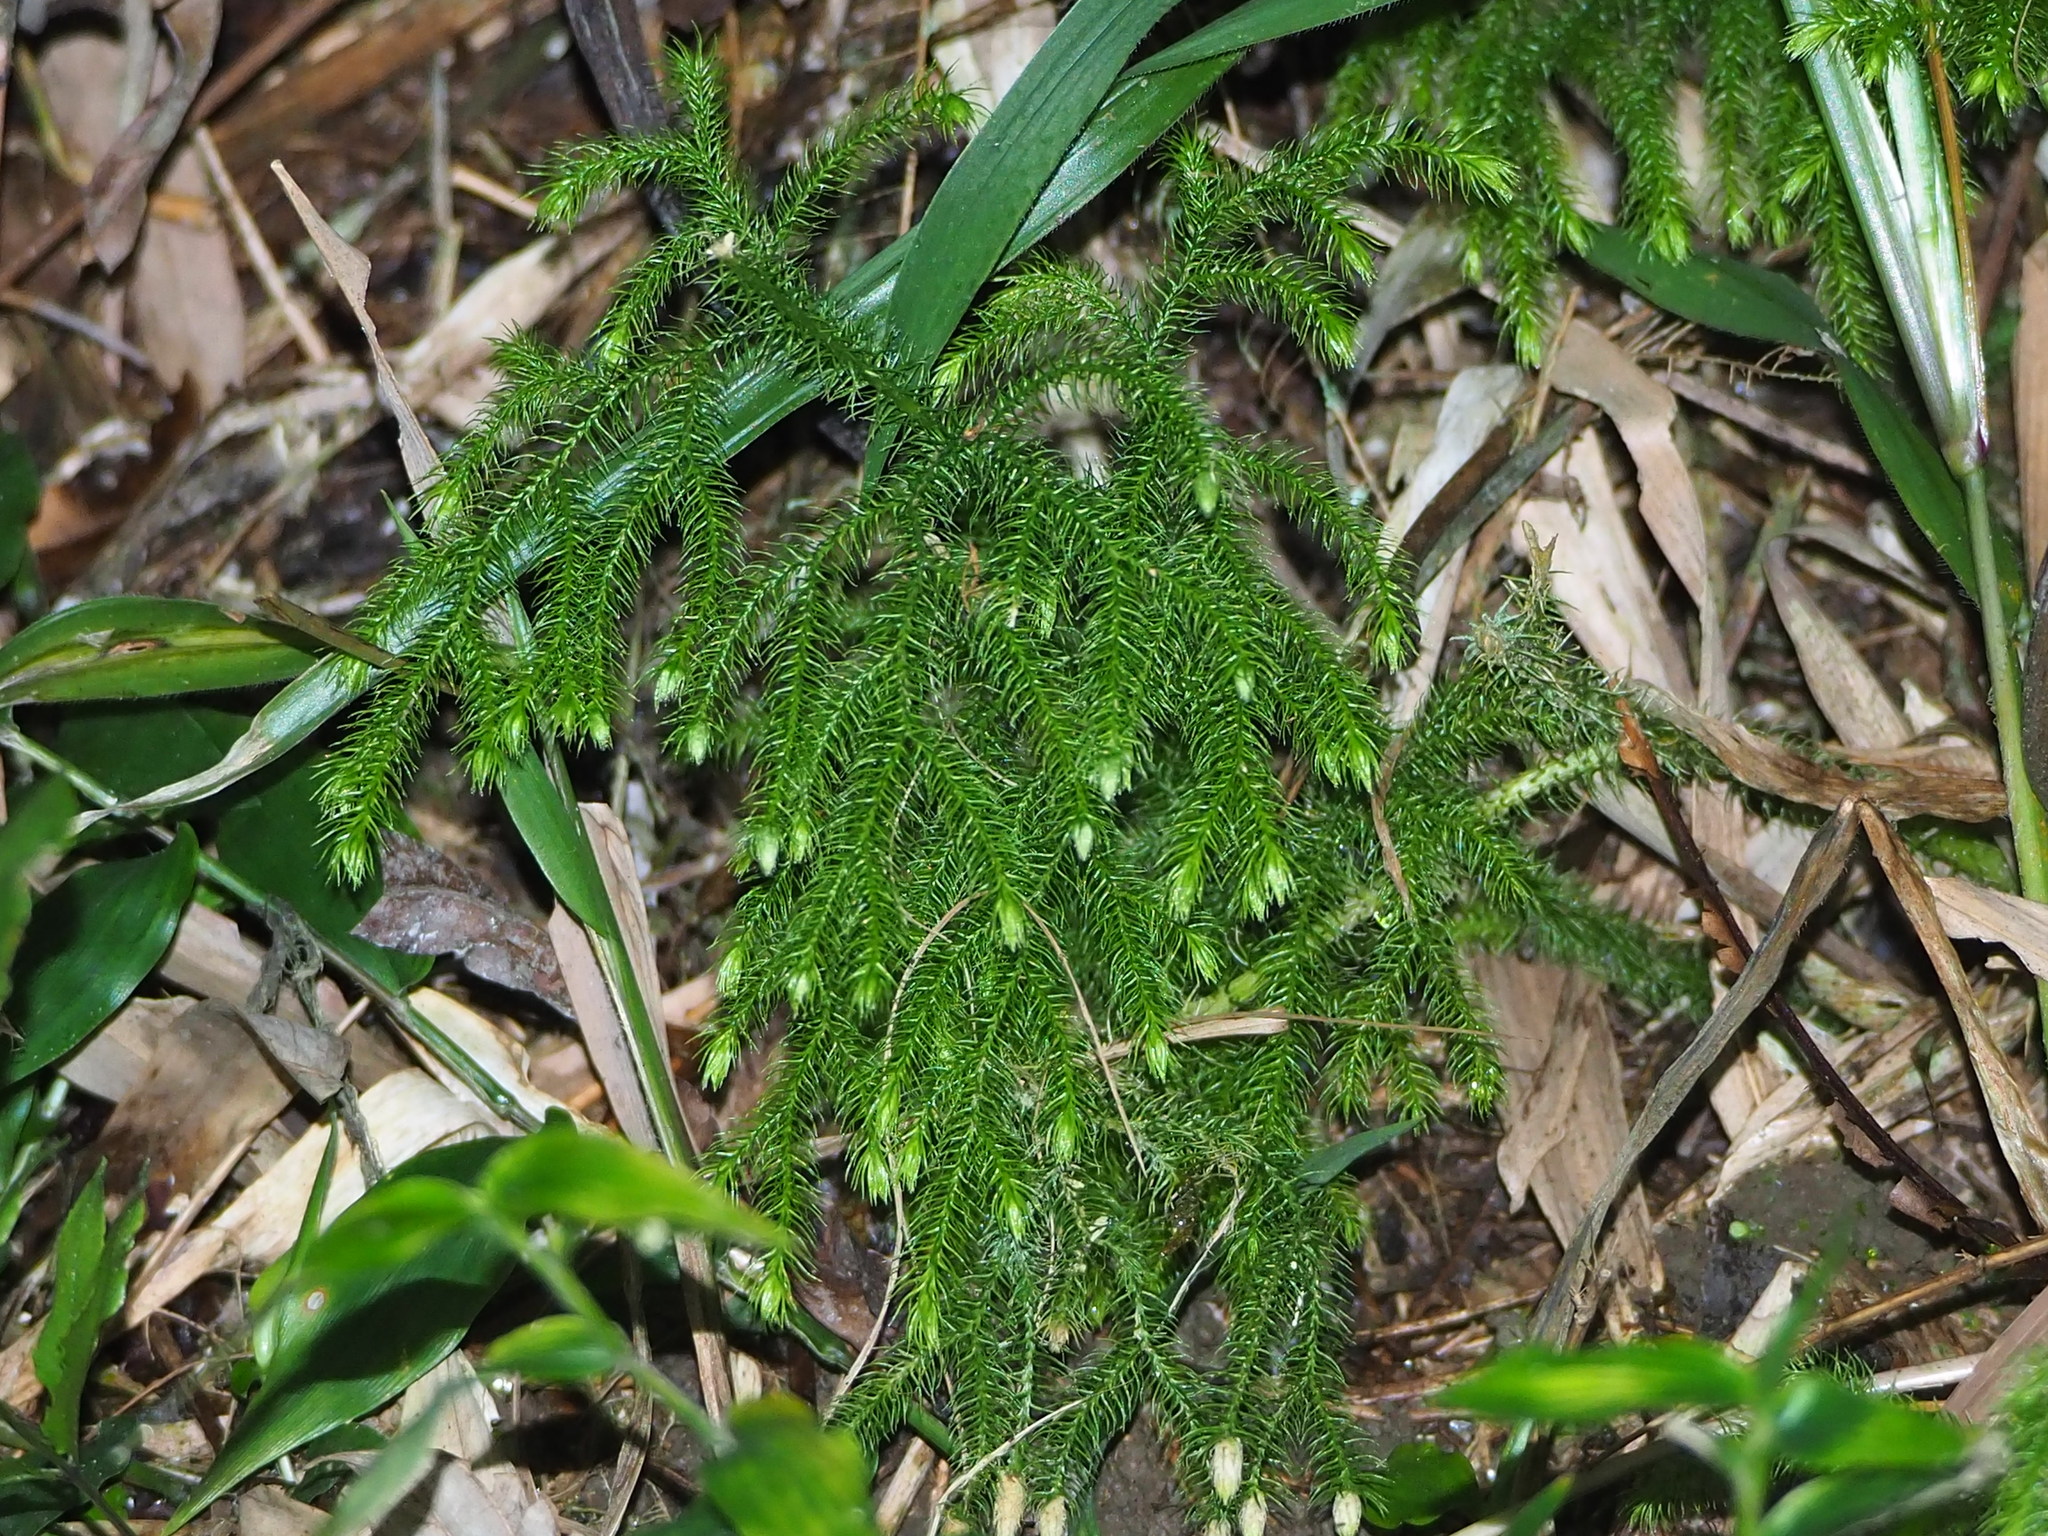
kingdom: Plantae
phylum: Tracheophyta
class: Lycopodiopsida
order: Lycopodiales
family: Lycopodiaceae
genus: Palhinhaea
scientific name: Palhinhaea cernua
